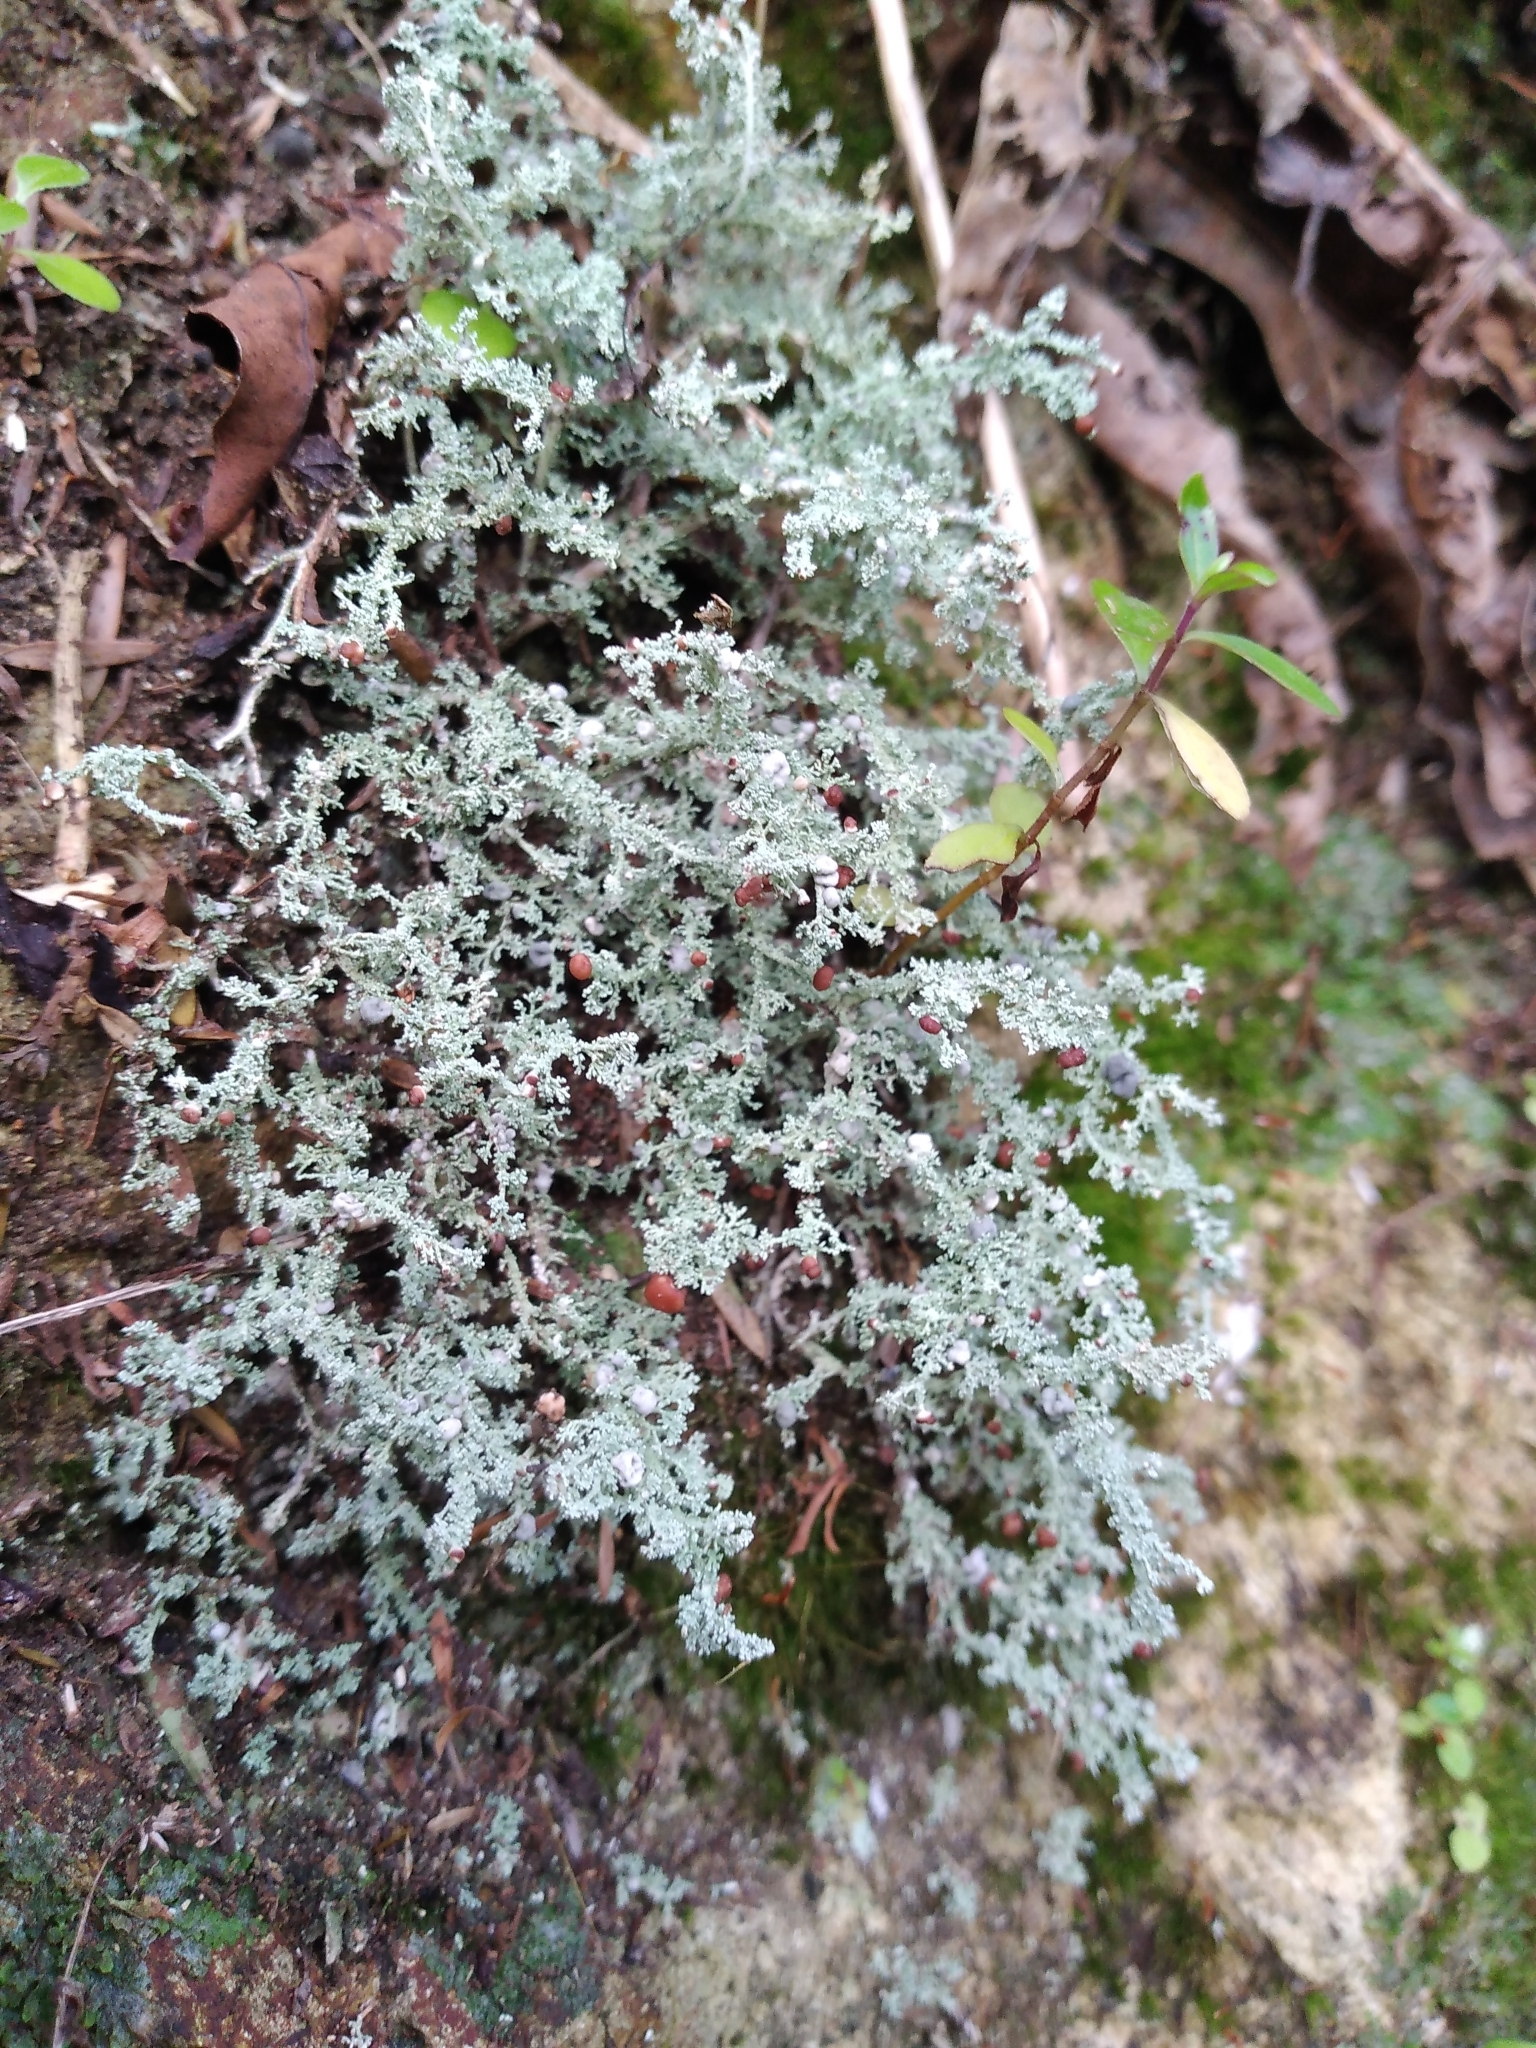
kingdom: Fungi
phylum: Ascomycota
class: Lecanoromycetes
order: Lecanorales
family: Stereocaulaceae
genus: Stereocaulon
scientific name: Stereocaulon ramulosum
